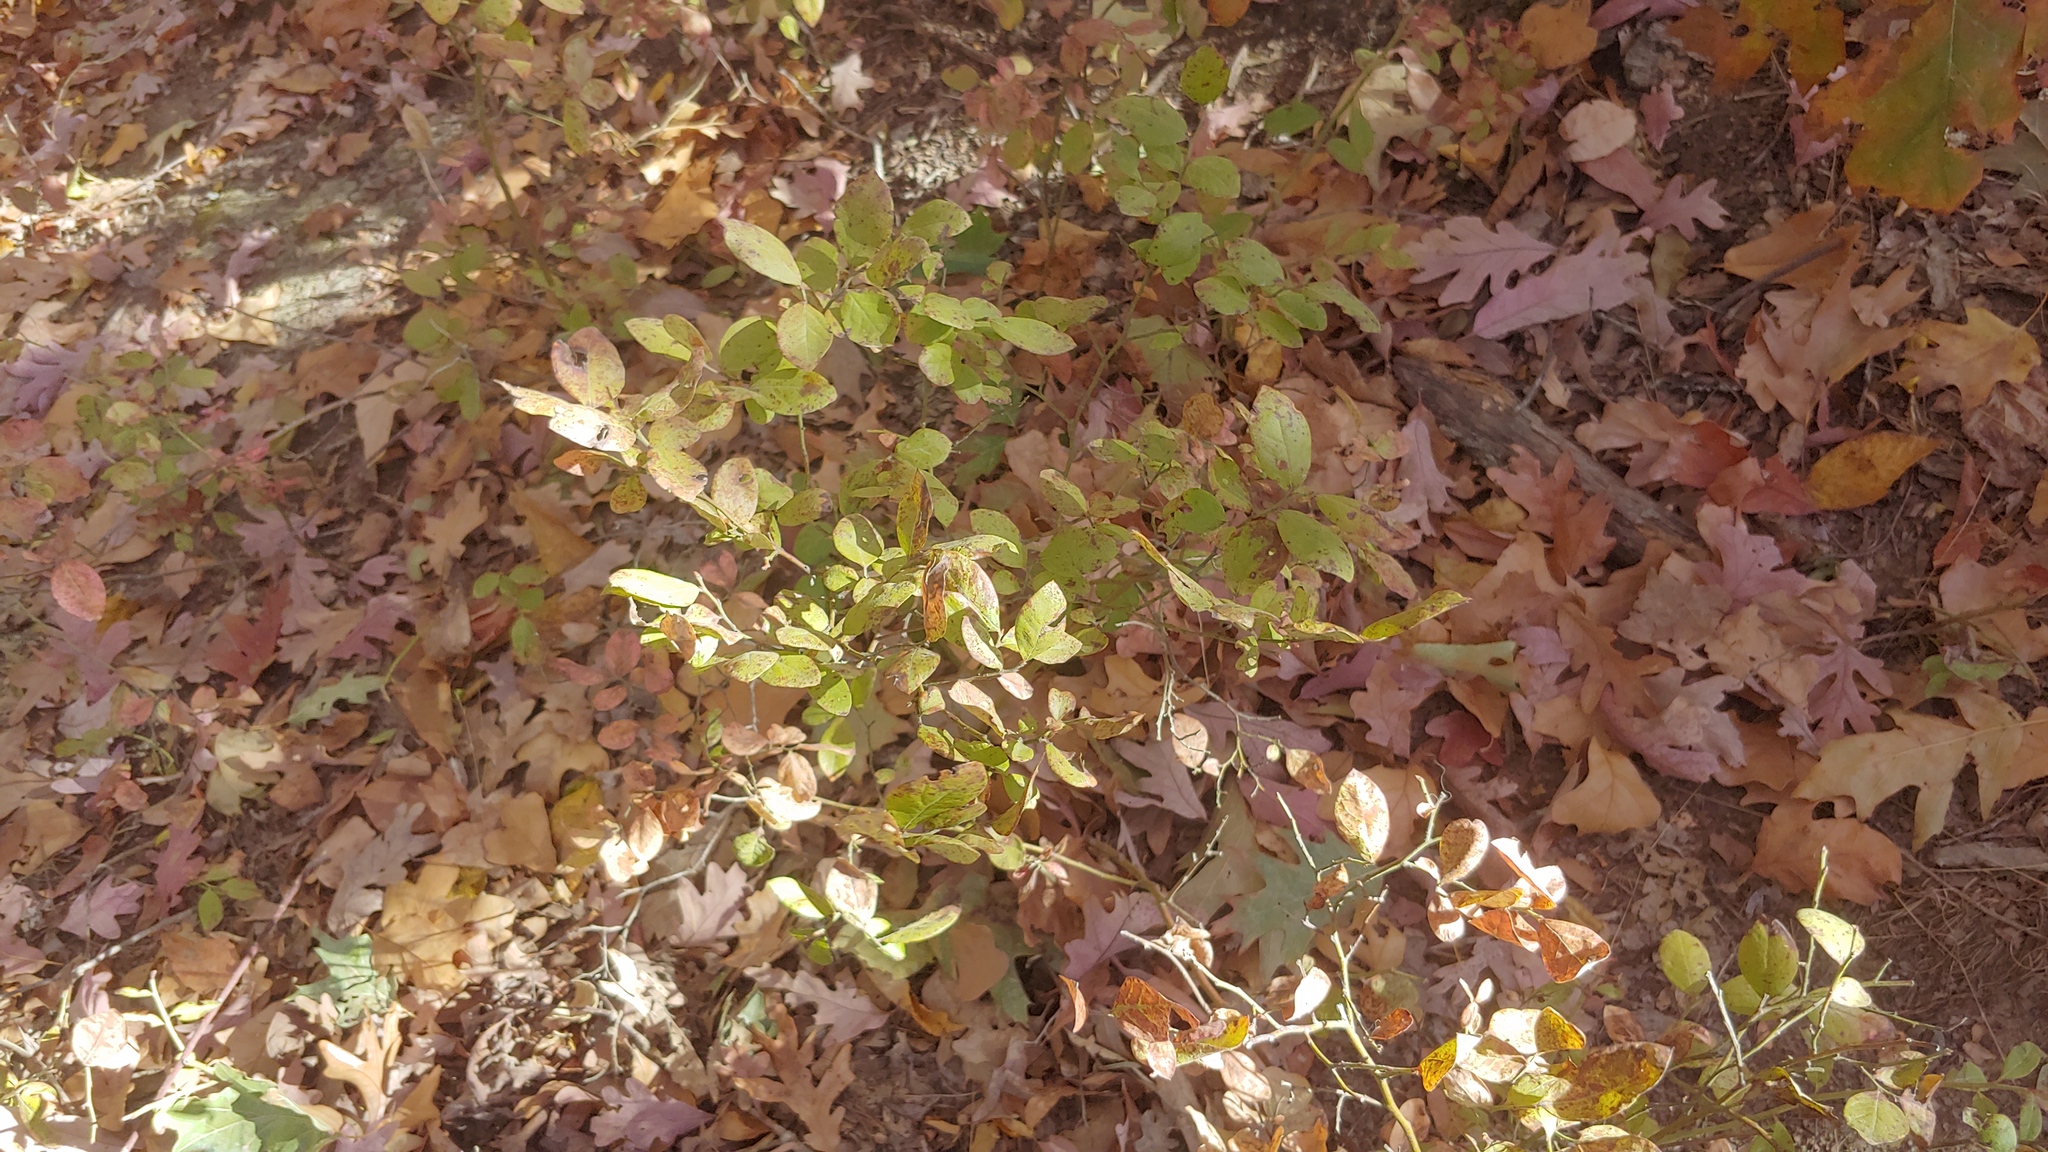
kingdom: Plantae
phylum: Tracheophyta
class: Magnoliopsida
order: Ericales
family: Ericaceae
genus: Vaccinium
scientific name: Vaccinium pallidum
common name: Blue ridge blueberry
